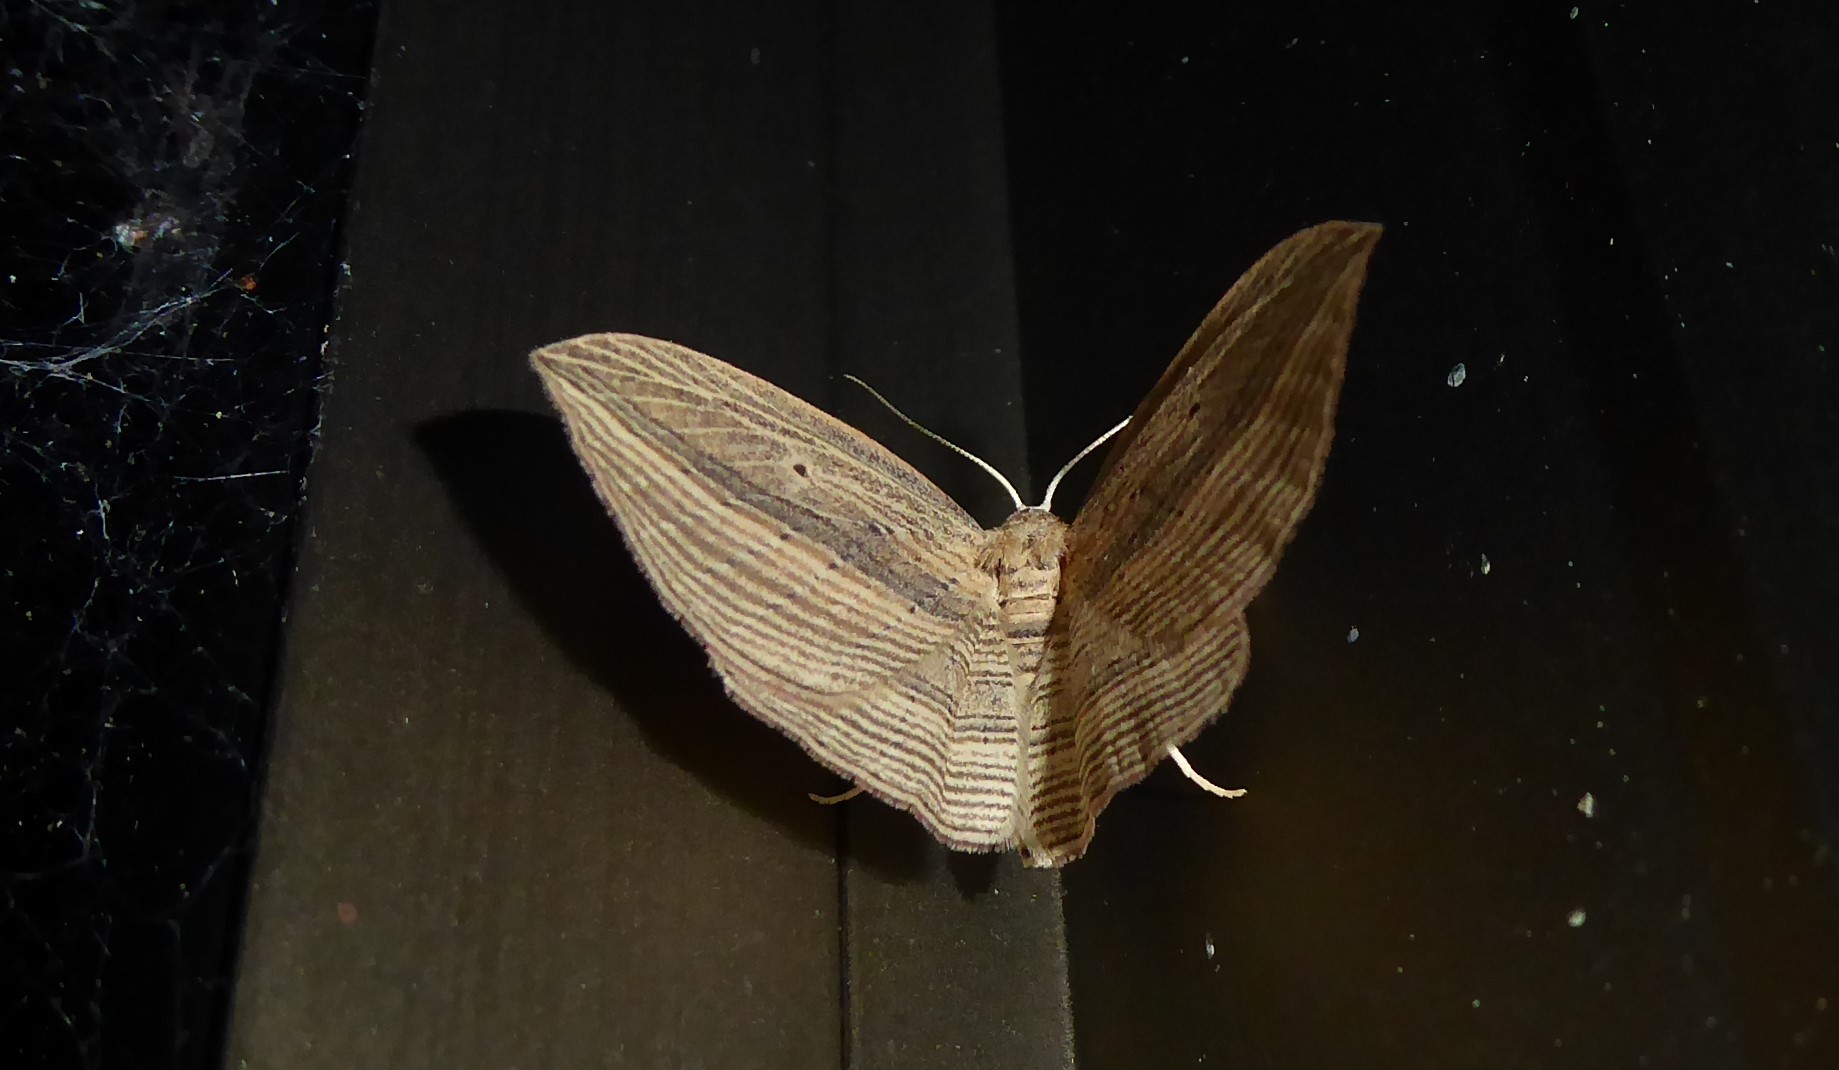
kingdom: Animalia
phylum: Arthropoda
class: Insecta
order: Lepidoptera
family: Geometridae
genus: Epiphryne
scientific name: Epiphryne verriculata
